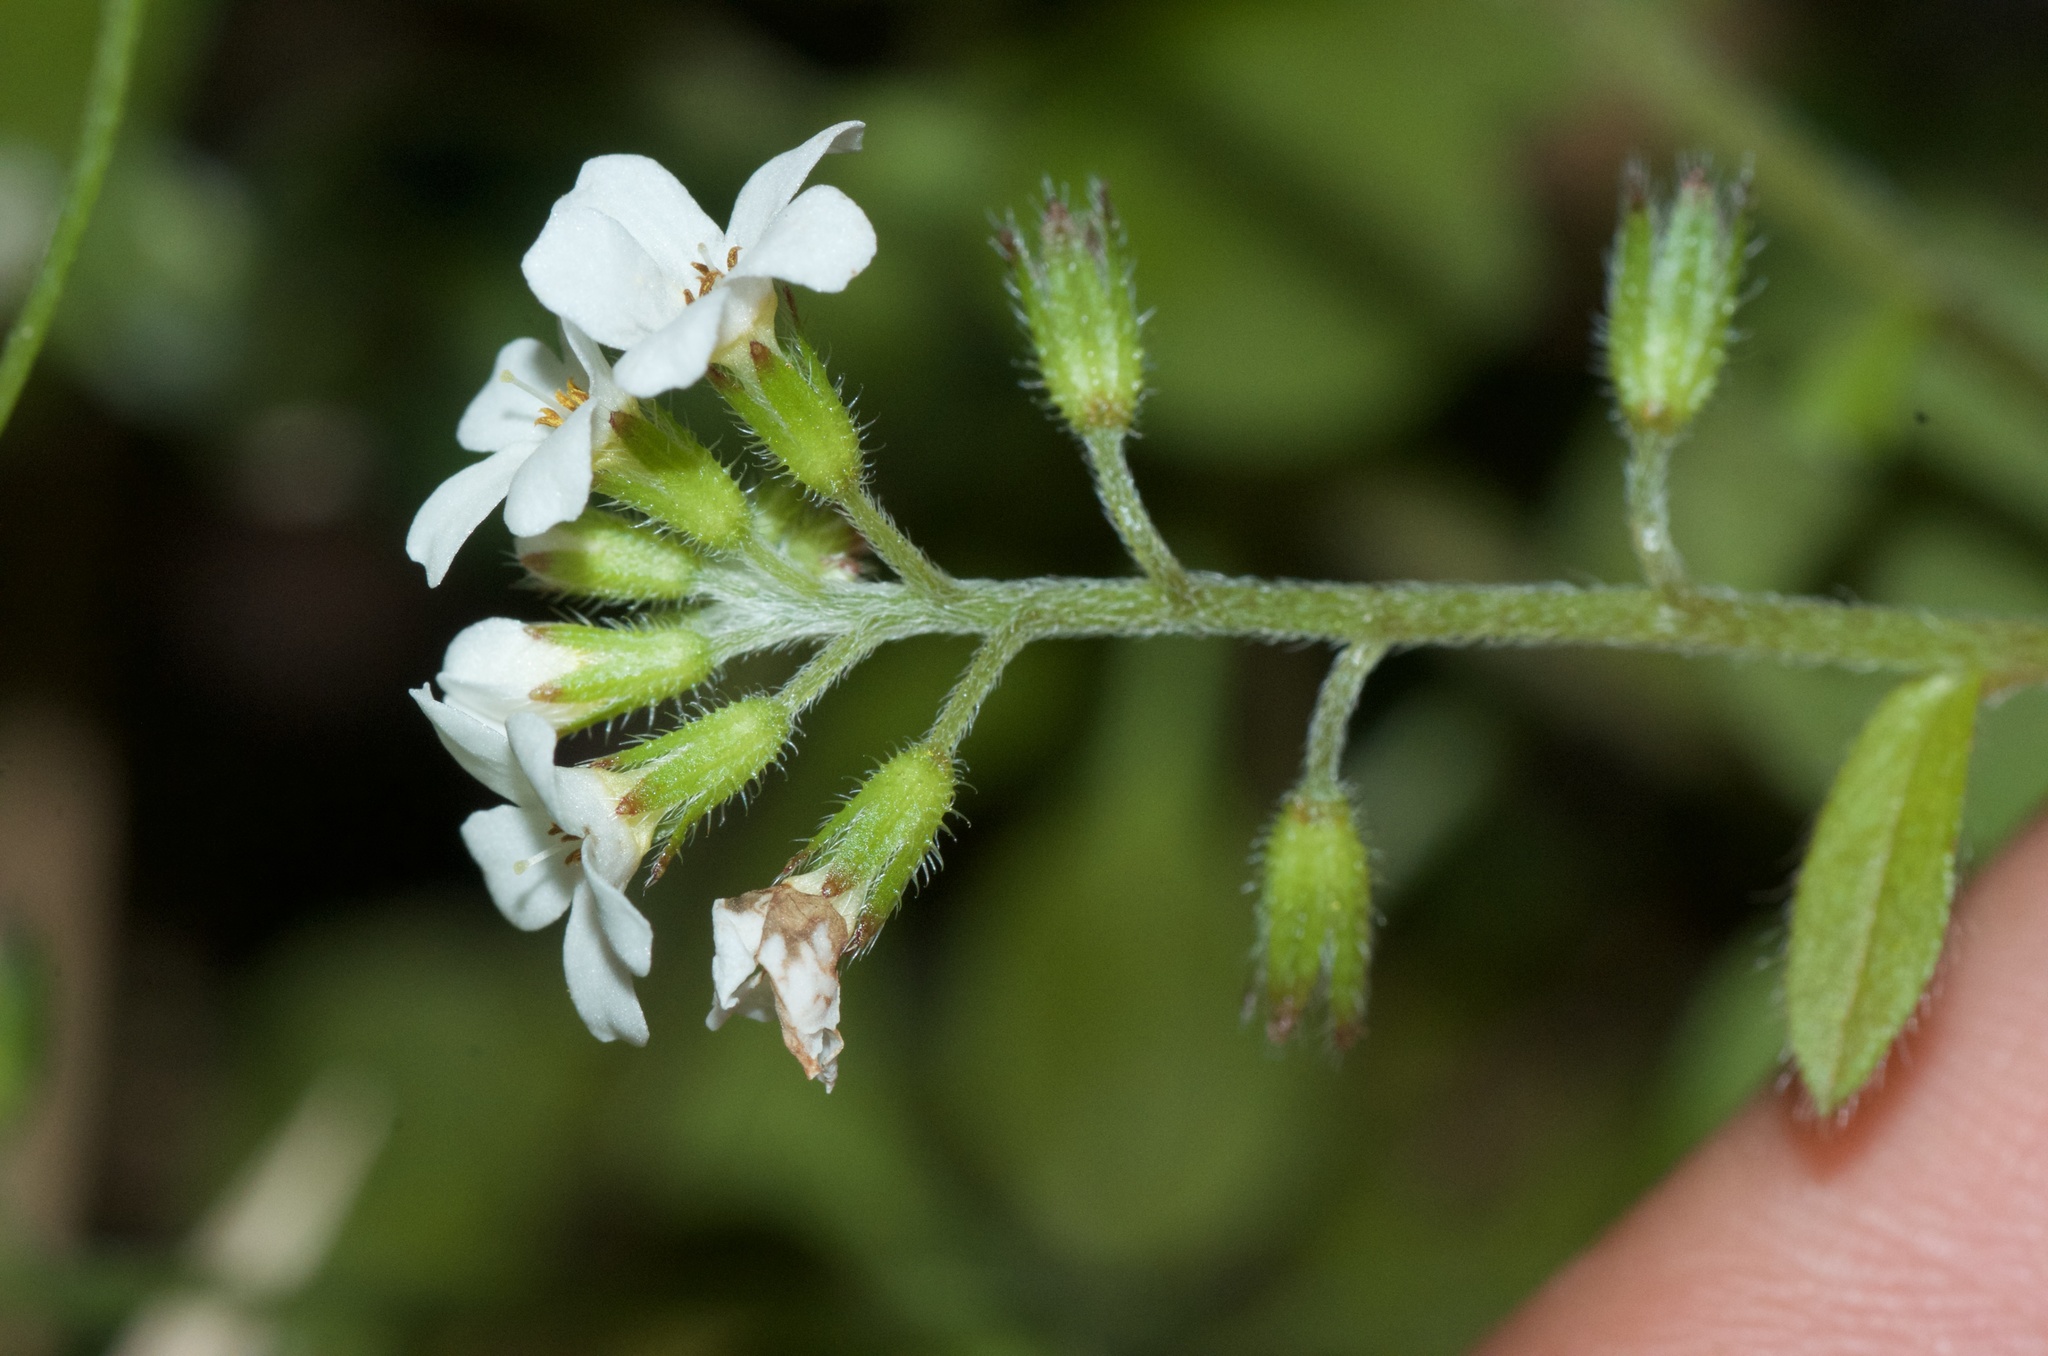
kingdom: Plantae
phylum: Tracheophyta
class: Magnoliopsida
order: Boraginales
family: Boraginaceae
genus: Myosotis
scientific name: Myosotis forsteri
